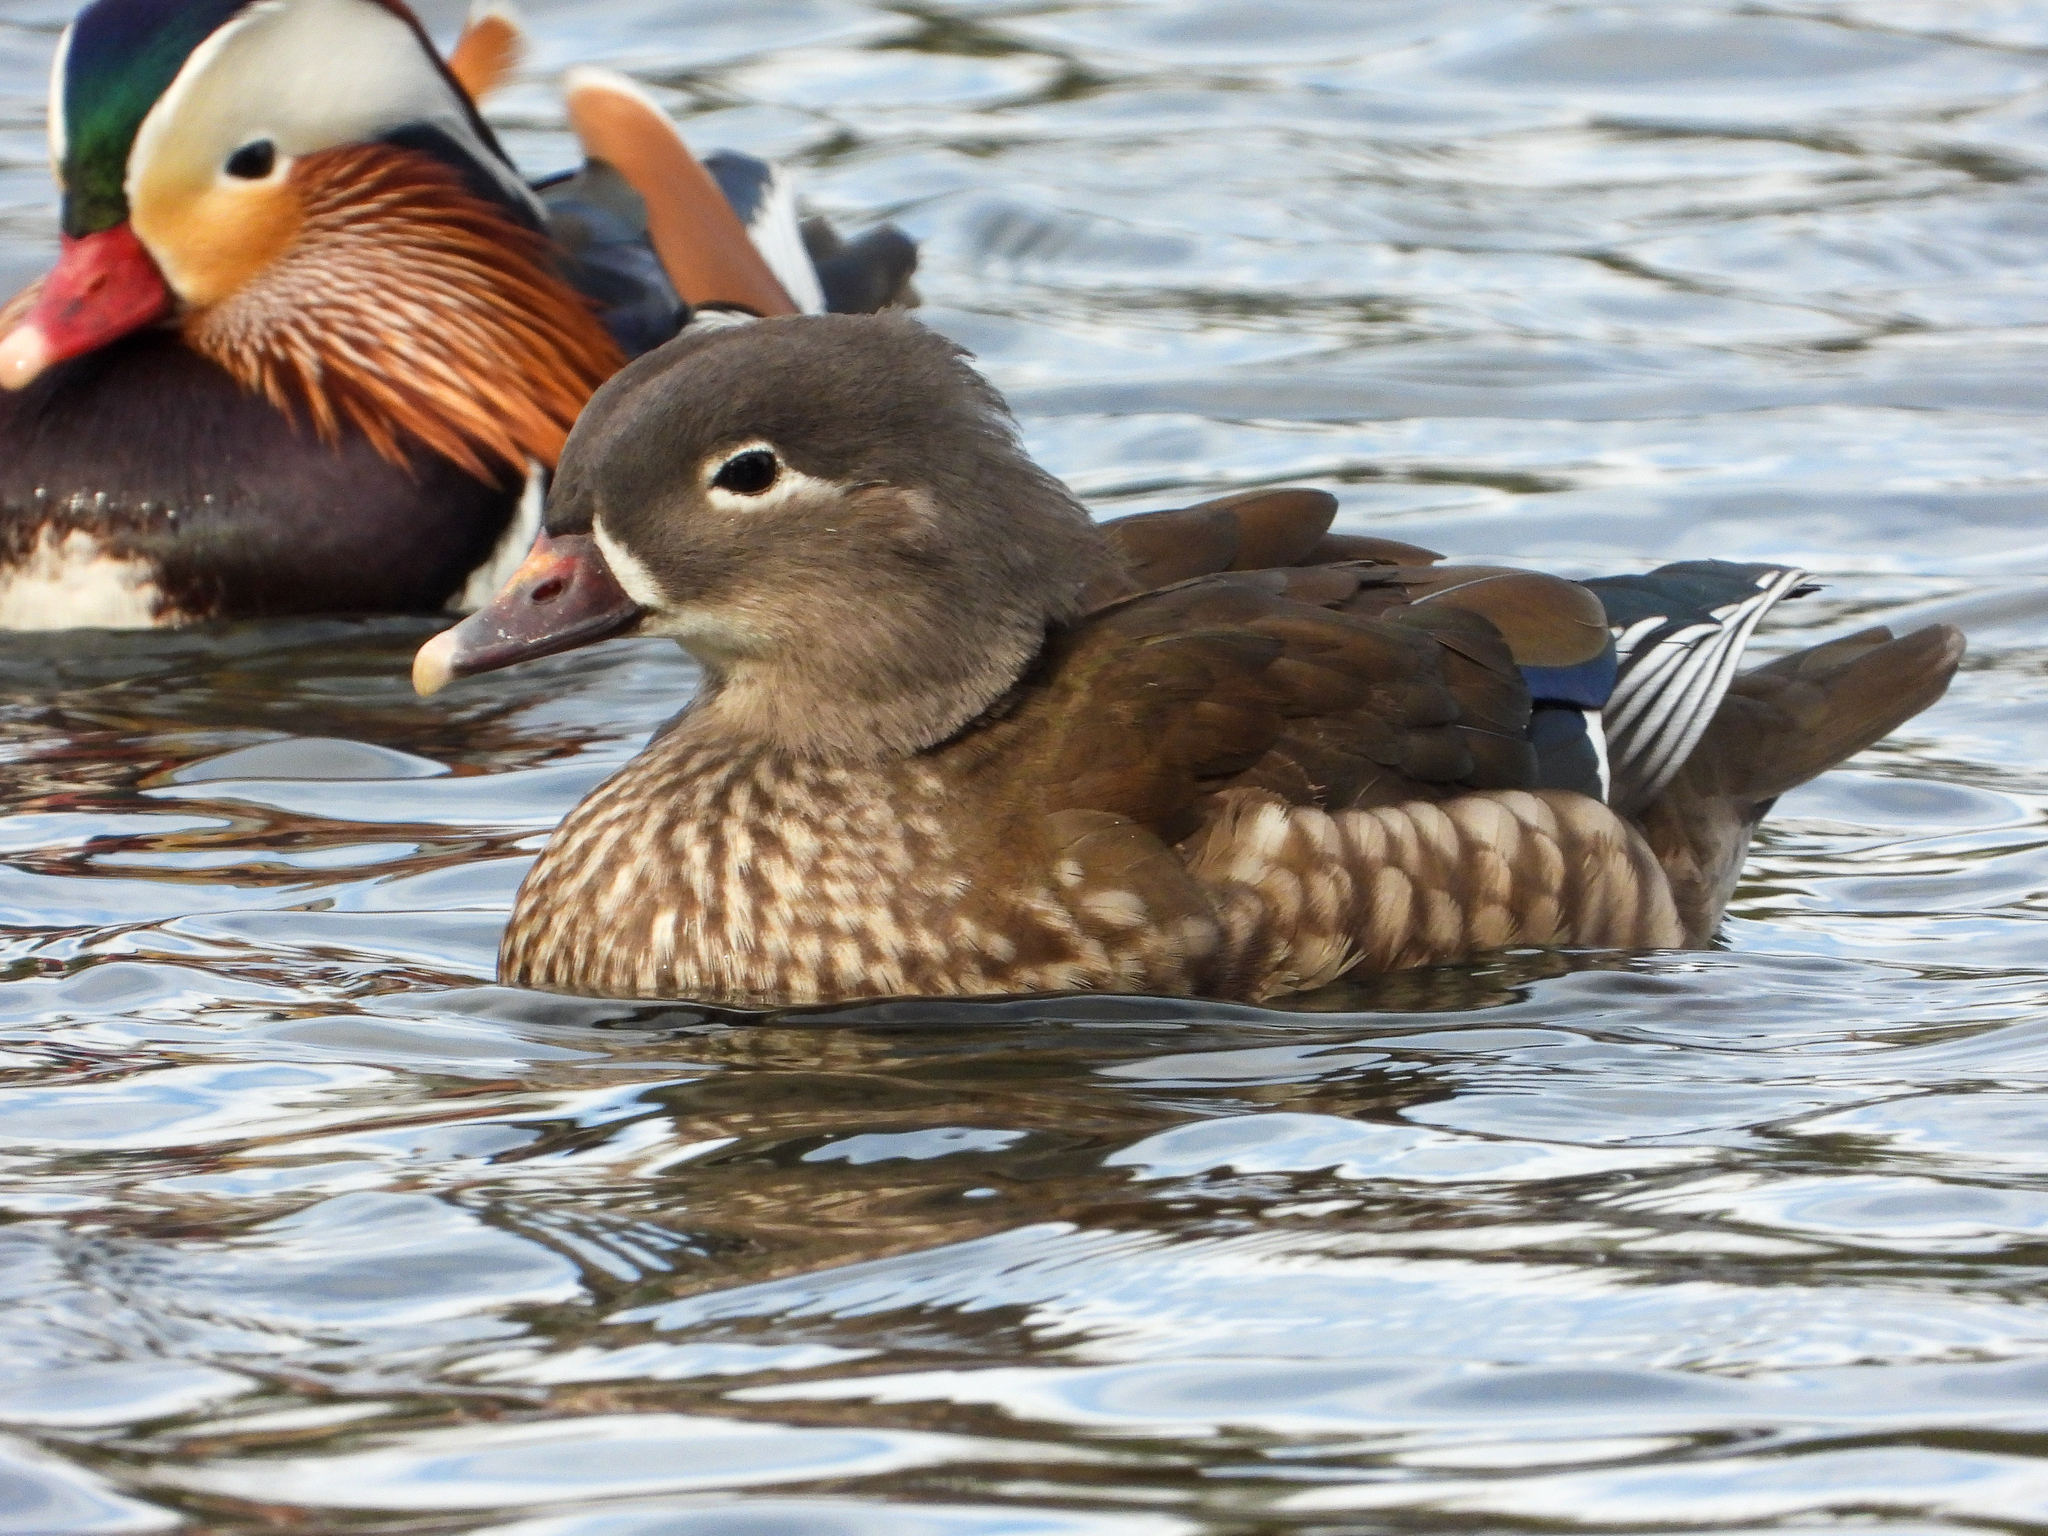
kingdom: Animalia
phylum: Chordata
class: Aves
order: Anseriformes
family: Anatidae
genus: Aix
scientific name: Aix galericulata
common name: Mandarin duck
